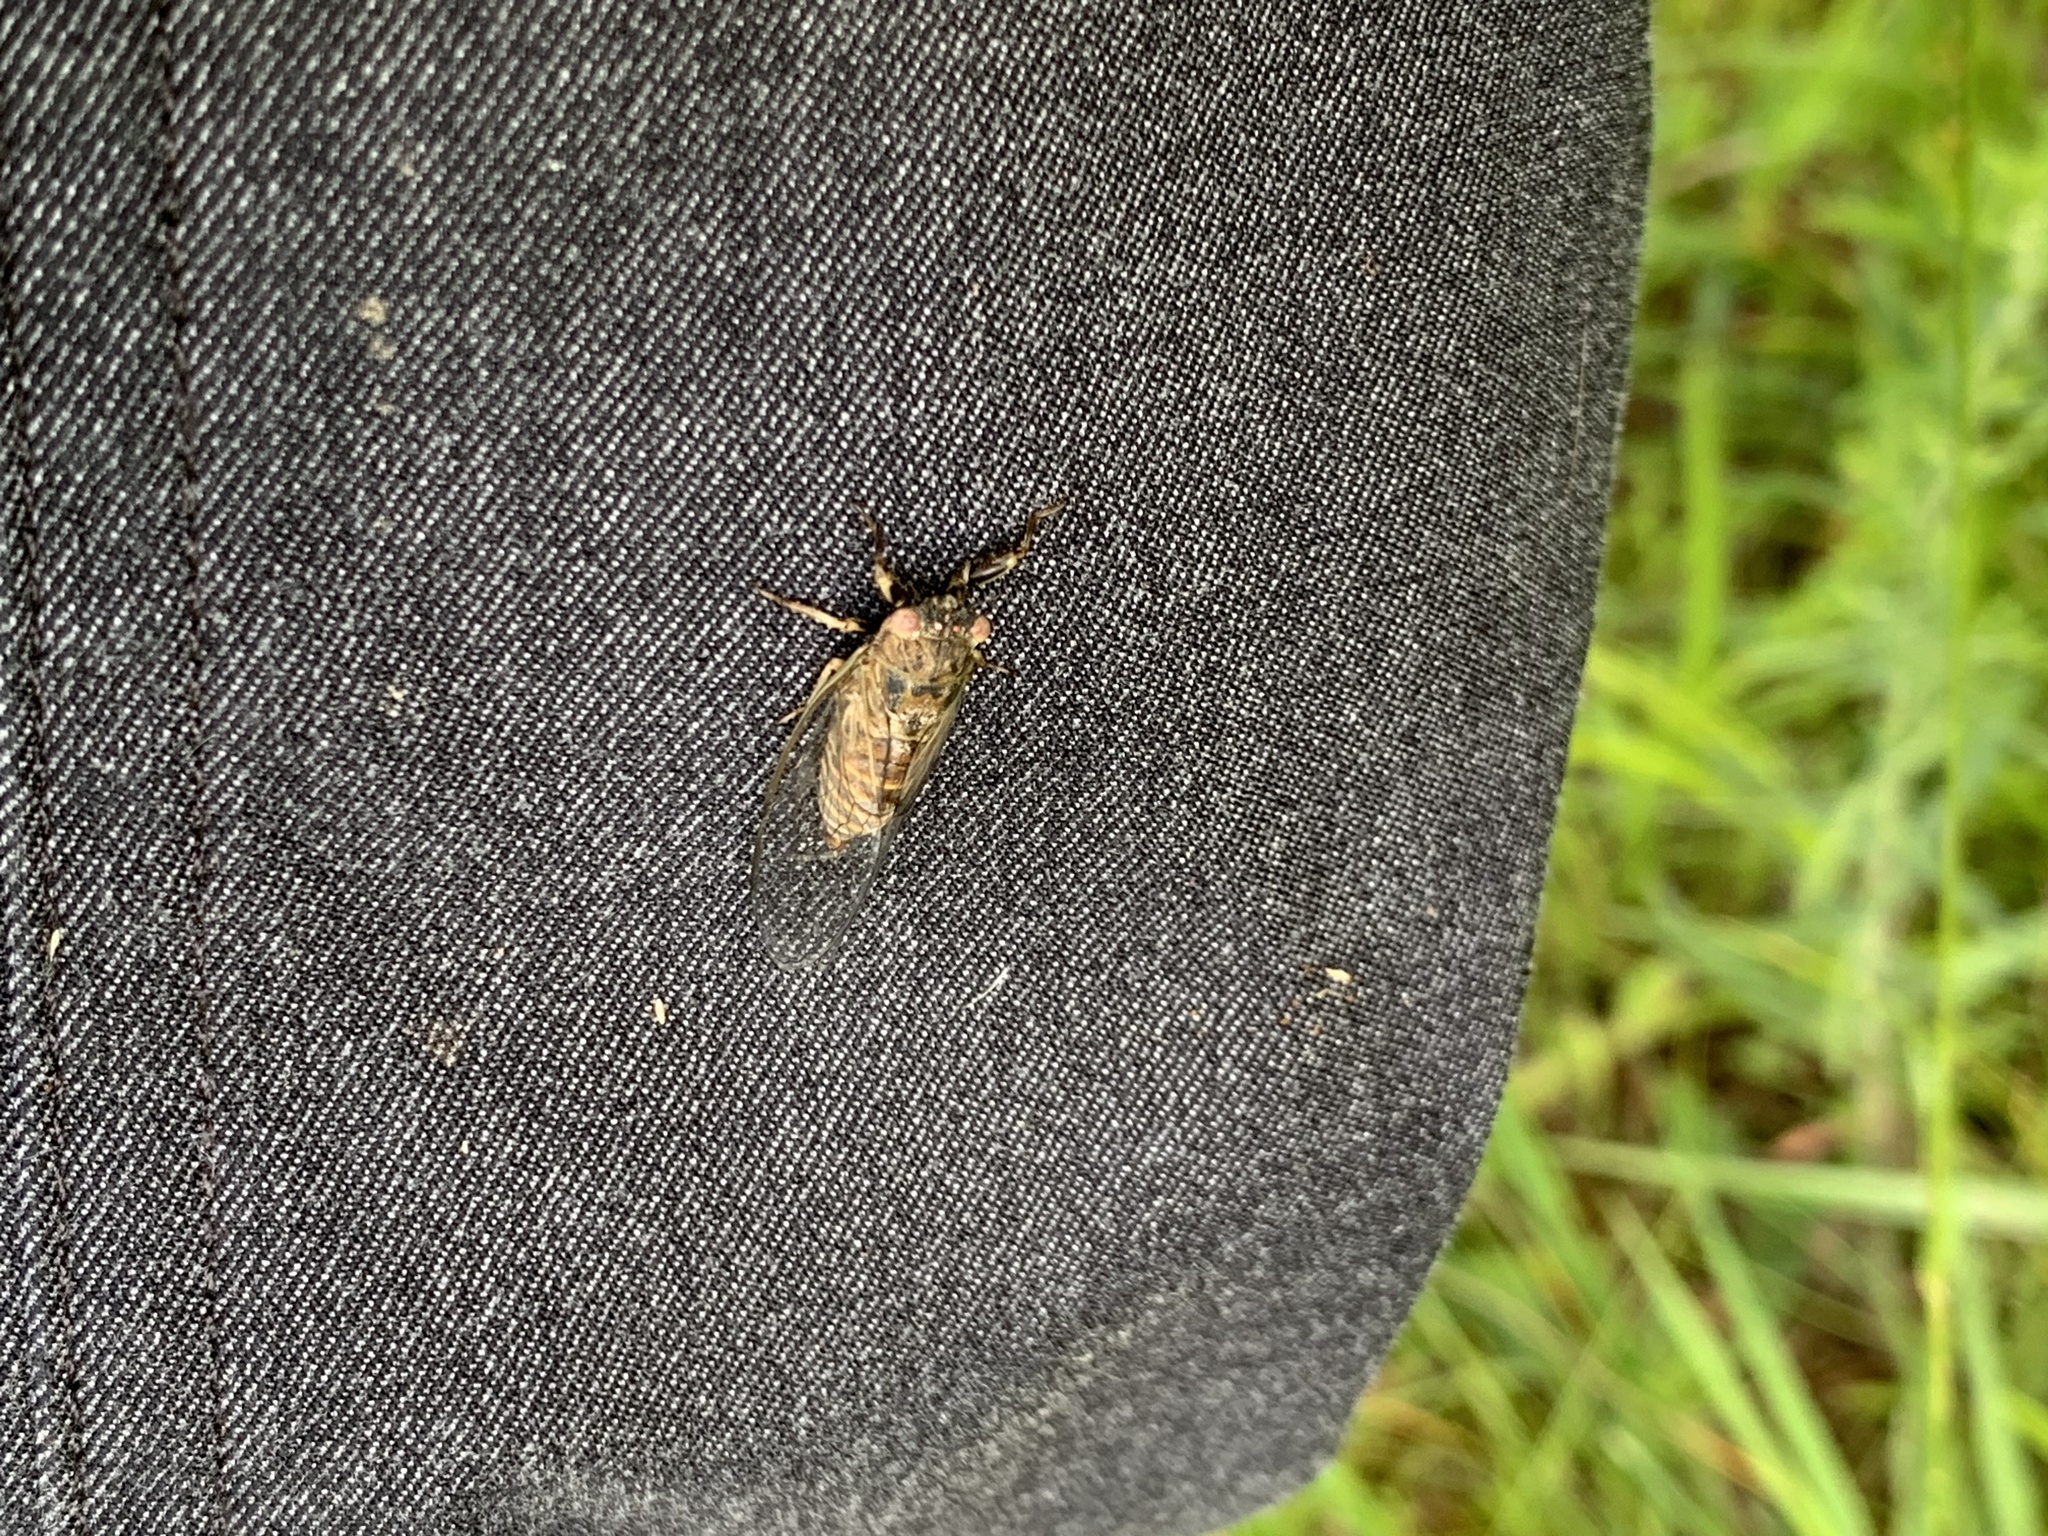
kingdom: Animalia
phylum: Arthropoda
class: Insecta
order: Hemiptera
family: Cicadidae
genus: Cicadettana
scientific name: Cicadettana calliope
